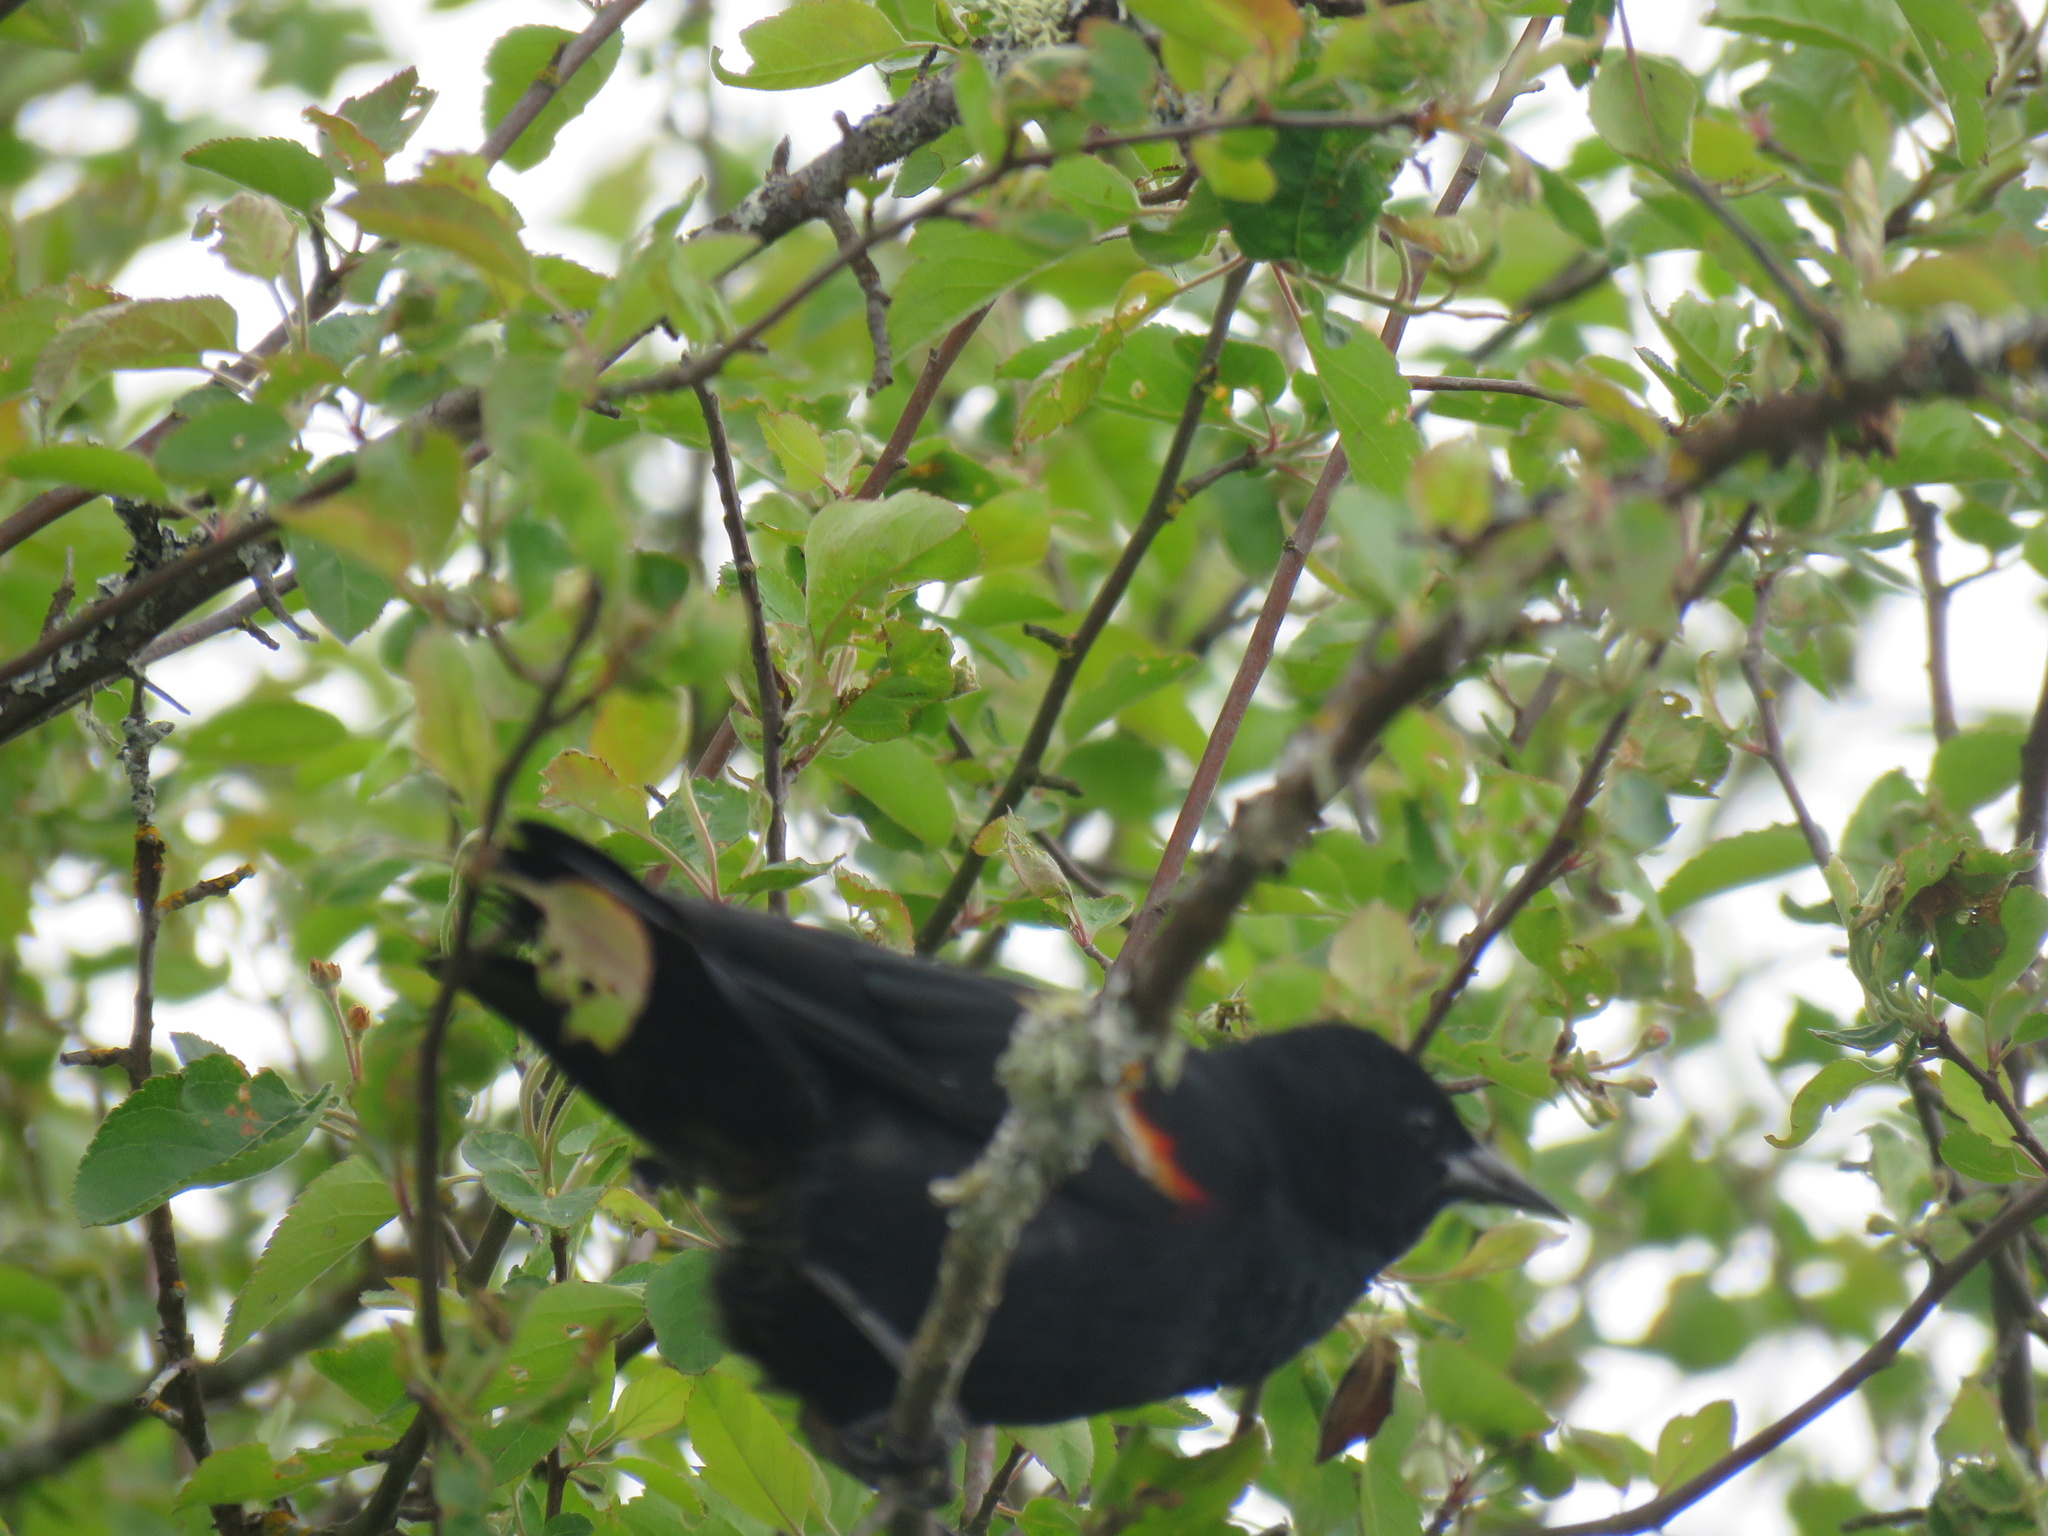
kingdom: Animalia
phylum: Chordata
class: Aves
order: Passeriformes
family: Icteridae
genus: Agelaius
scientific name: Agelaius phoeniceus
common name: Red-winged blackbird
